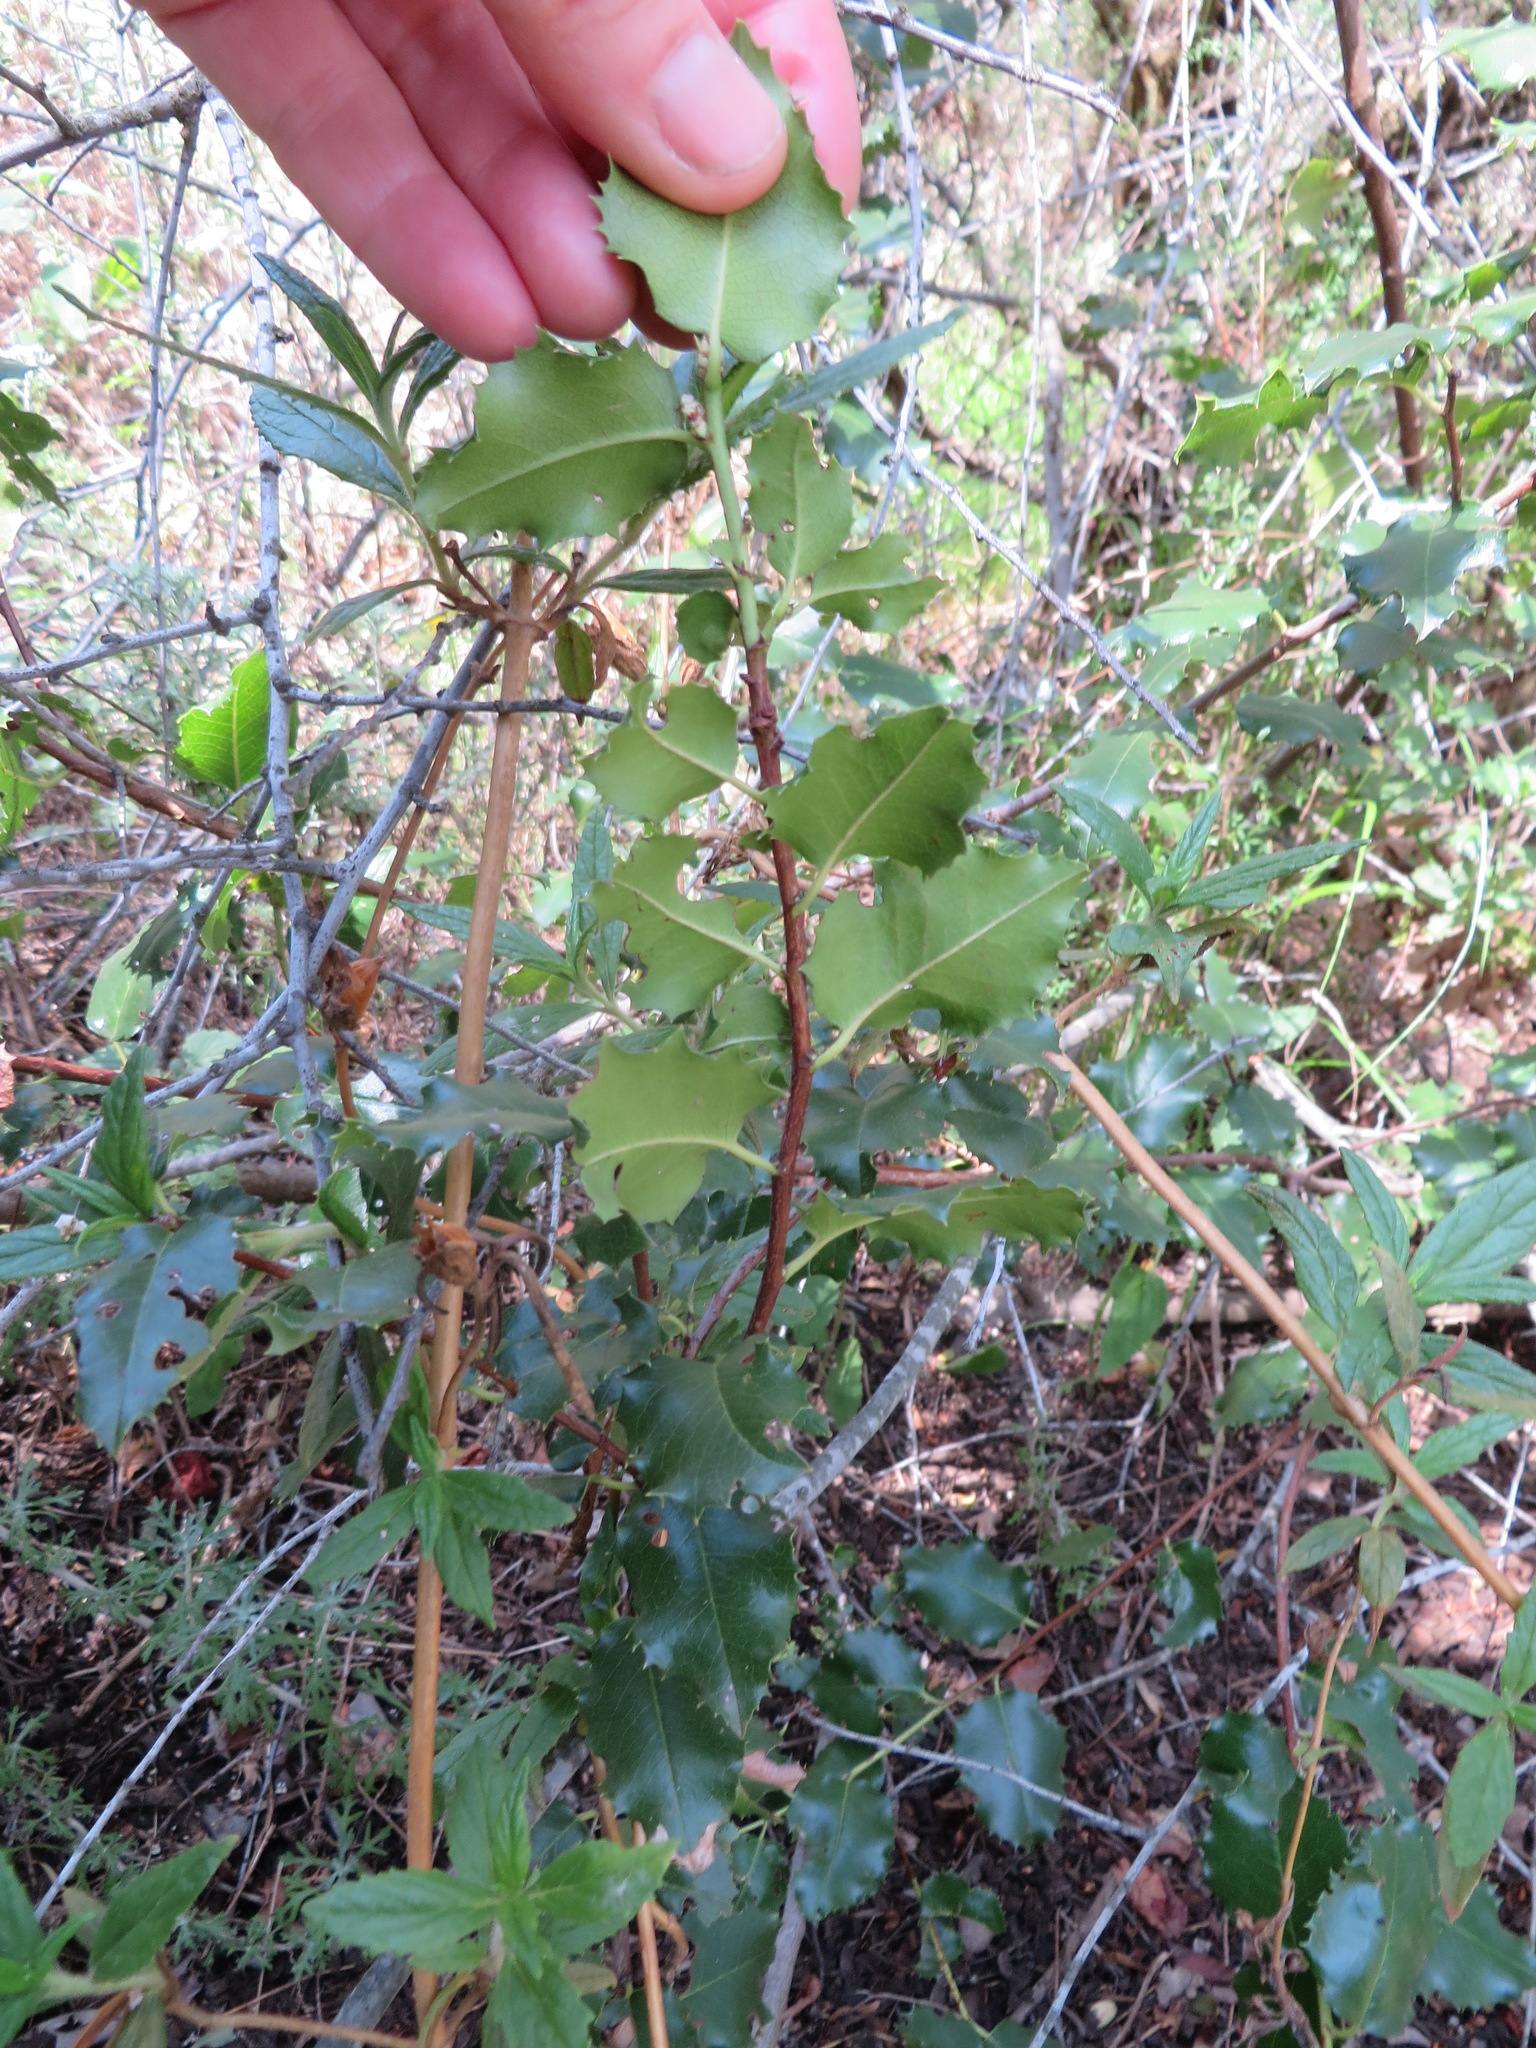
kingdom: Plantae
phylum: Tracheophyta
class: Magnoliopsida
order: Rosales
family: Rosaceae
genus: Prunus
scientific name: Prunus ilicifolia
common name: Hollyleaf cherry
